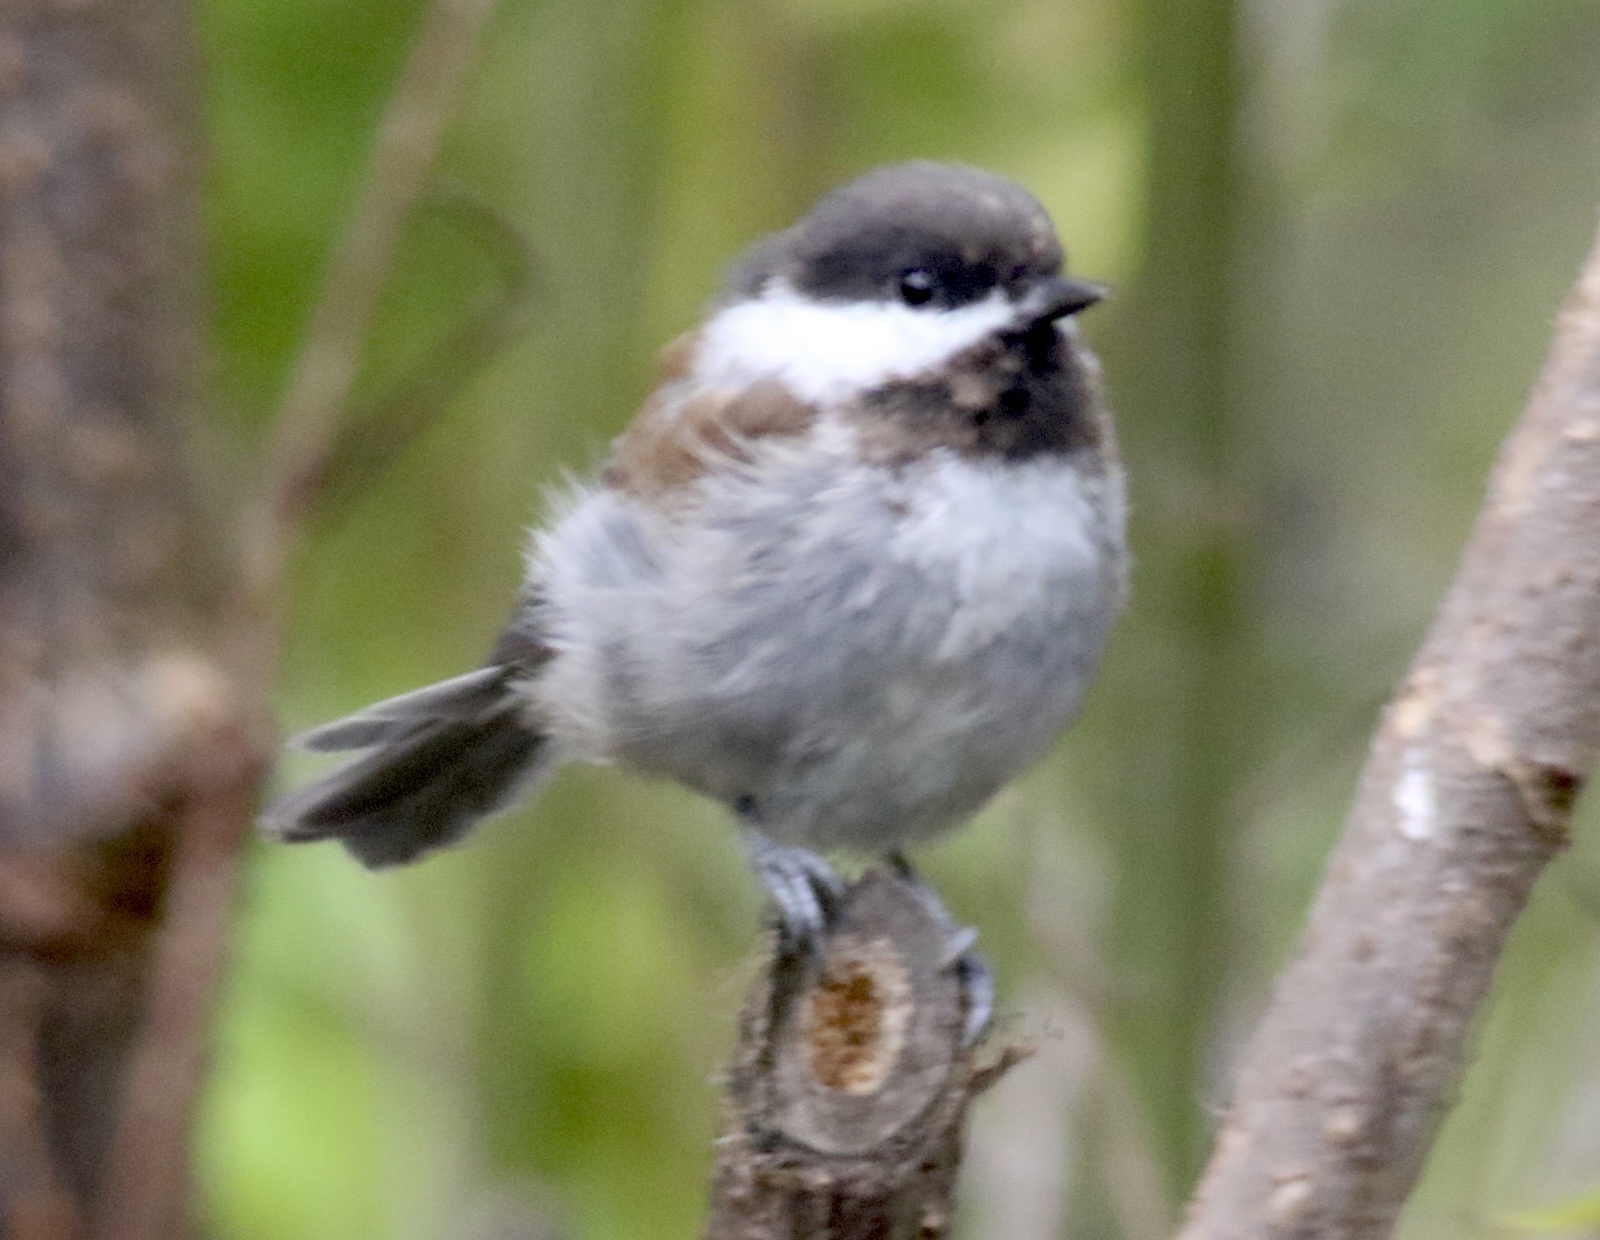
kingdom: Animalia
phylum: Chordata
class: Aves
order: Passeriformes
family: Paridae
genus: Poecile
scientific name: Poecile rufescens
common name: Chestnut-backed chickadee
